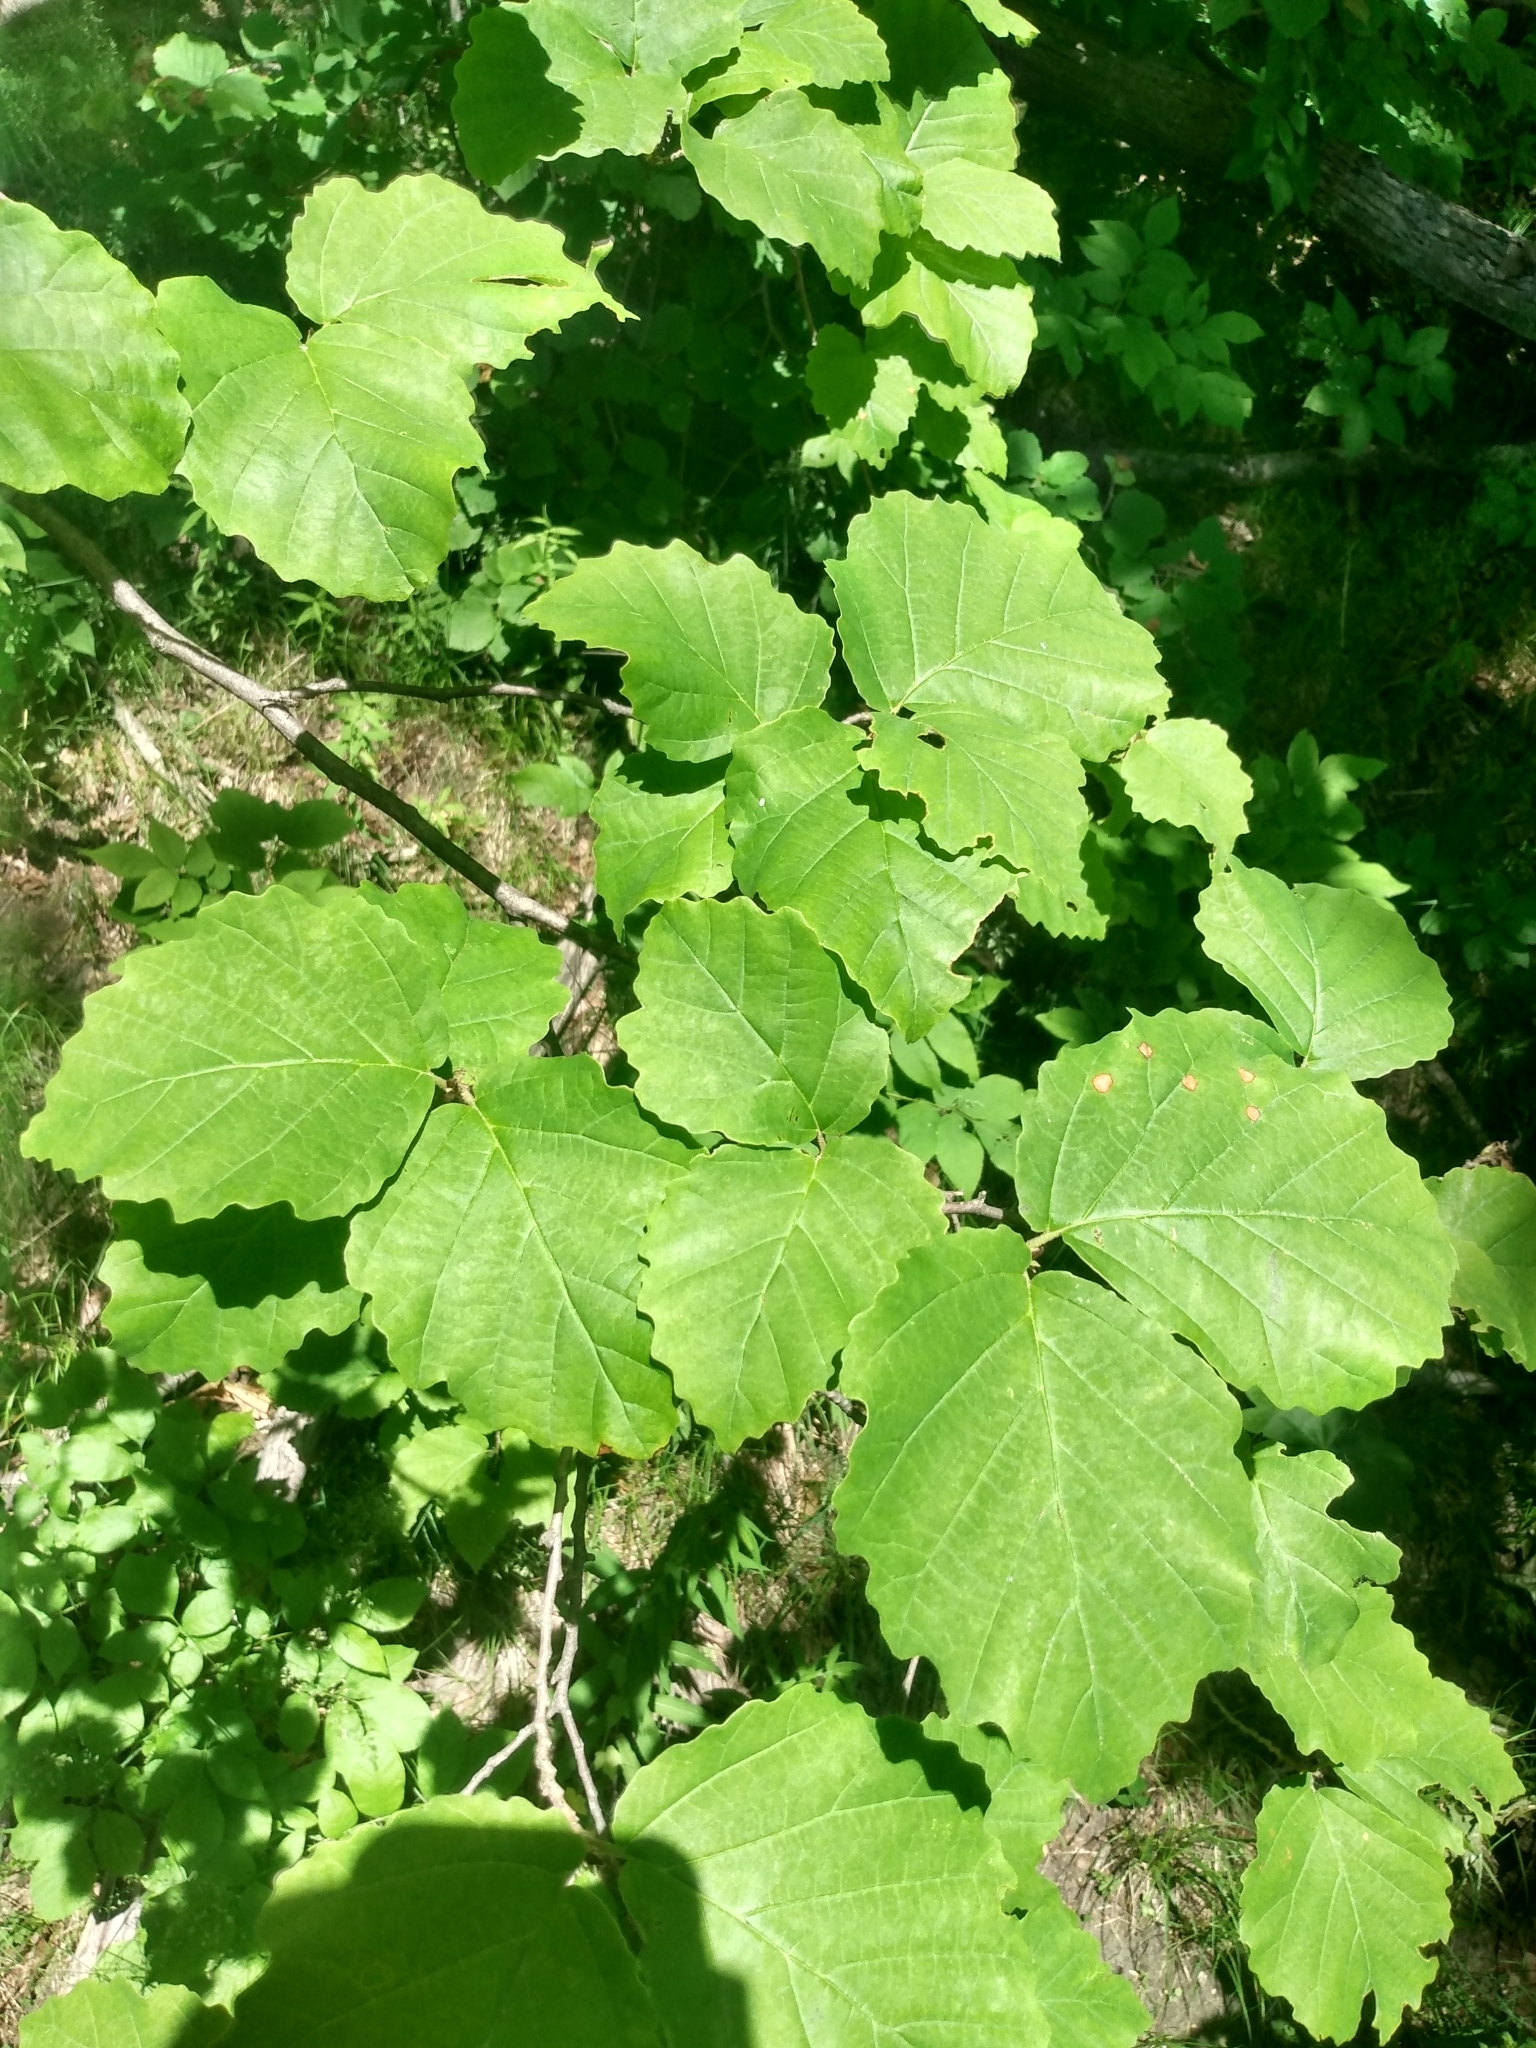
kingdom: Plantae
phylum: Tracheophyta
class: Magnoliopsida
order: Saxifragales
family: Hamamelidaceae
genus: Hamamelis
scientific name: Hamamelis virginiana
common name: Witch-hazel
